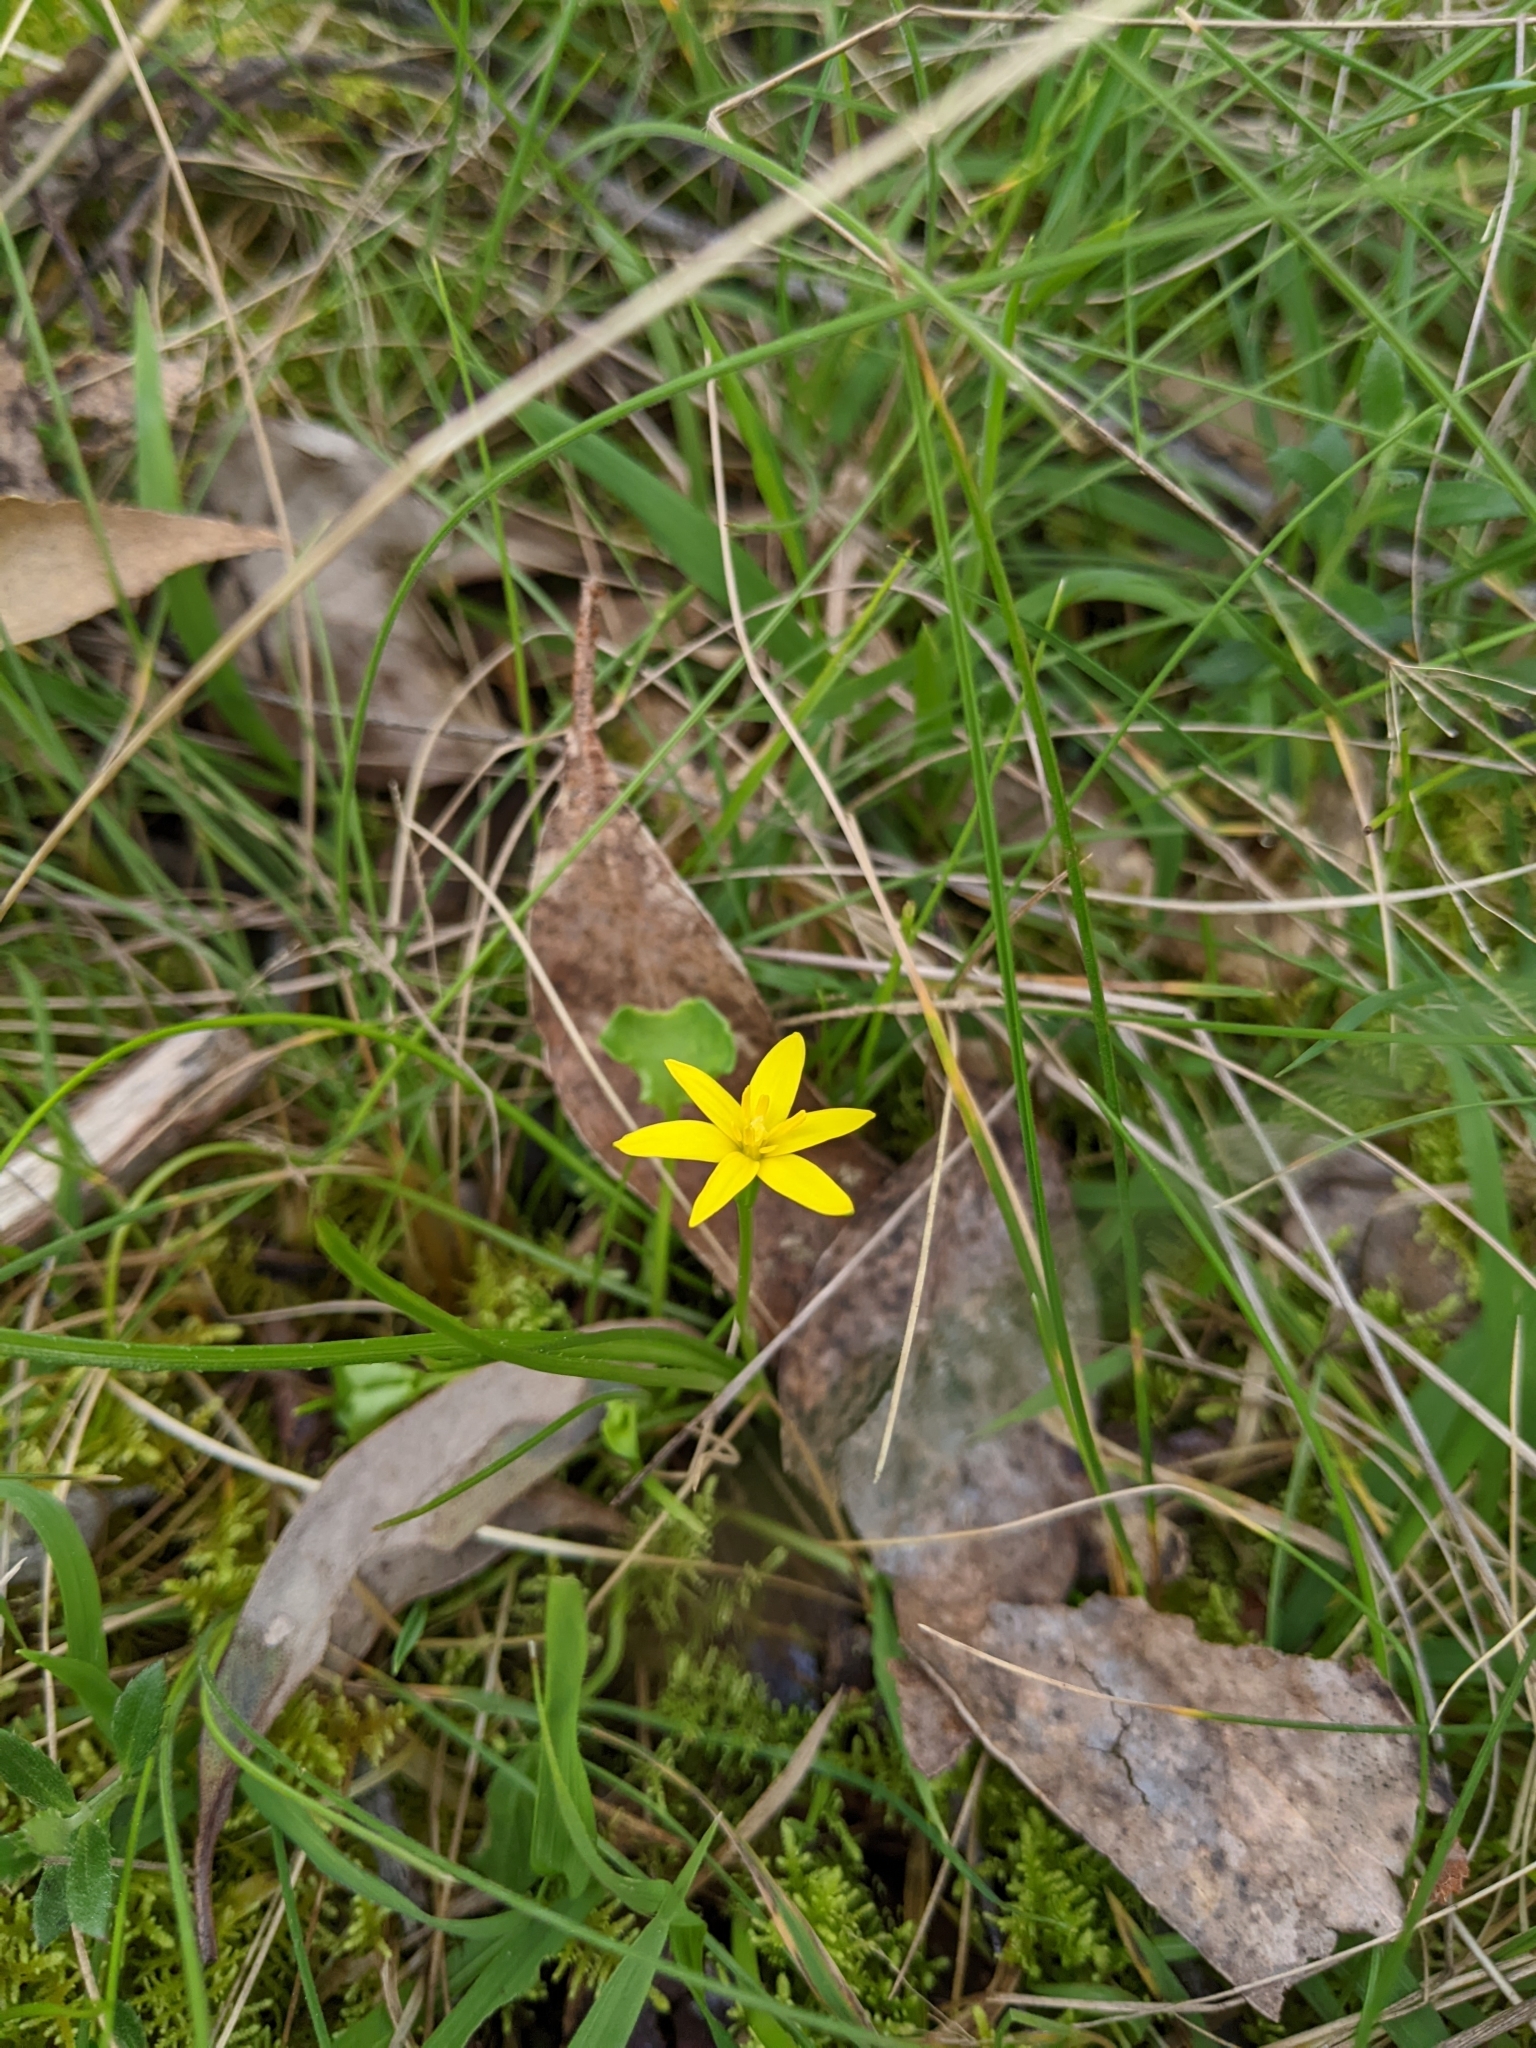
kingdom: Plantae
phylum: Tracheophyta
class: Liliopsida
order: Asparagales
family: Hypoxidaceae
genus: Pauridia
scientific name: Pauridia vaginata
